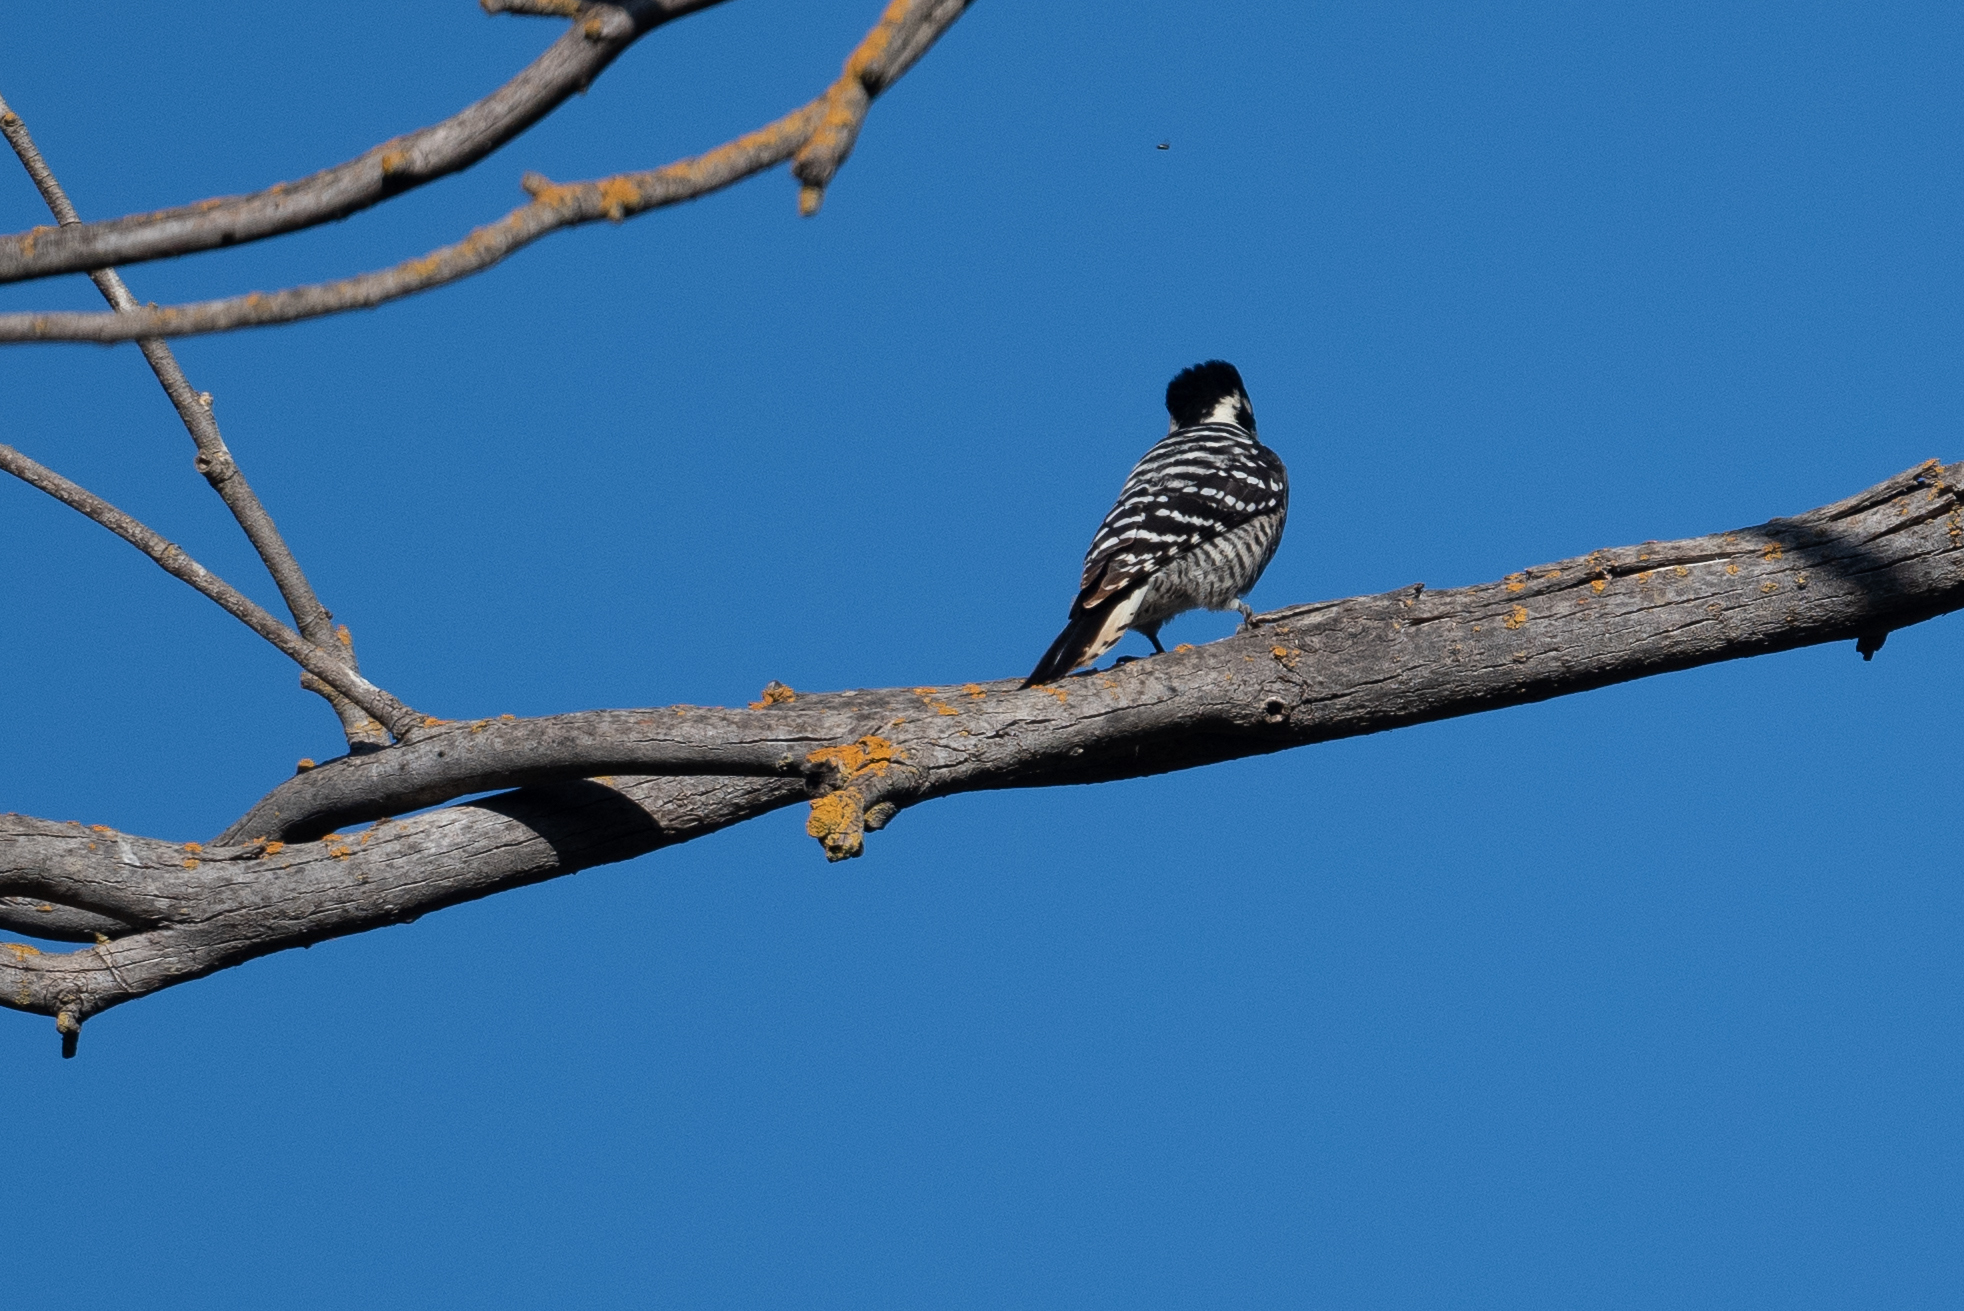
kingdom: Animalia
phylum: Chordata
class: Aves
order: Piciformes
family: Picidae
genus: Dryobates
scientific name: Dryobates nuttallii
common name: Nuttall's woodpecker
